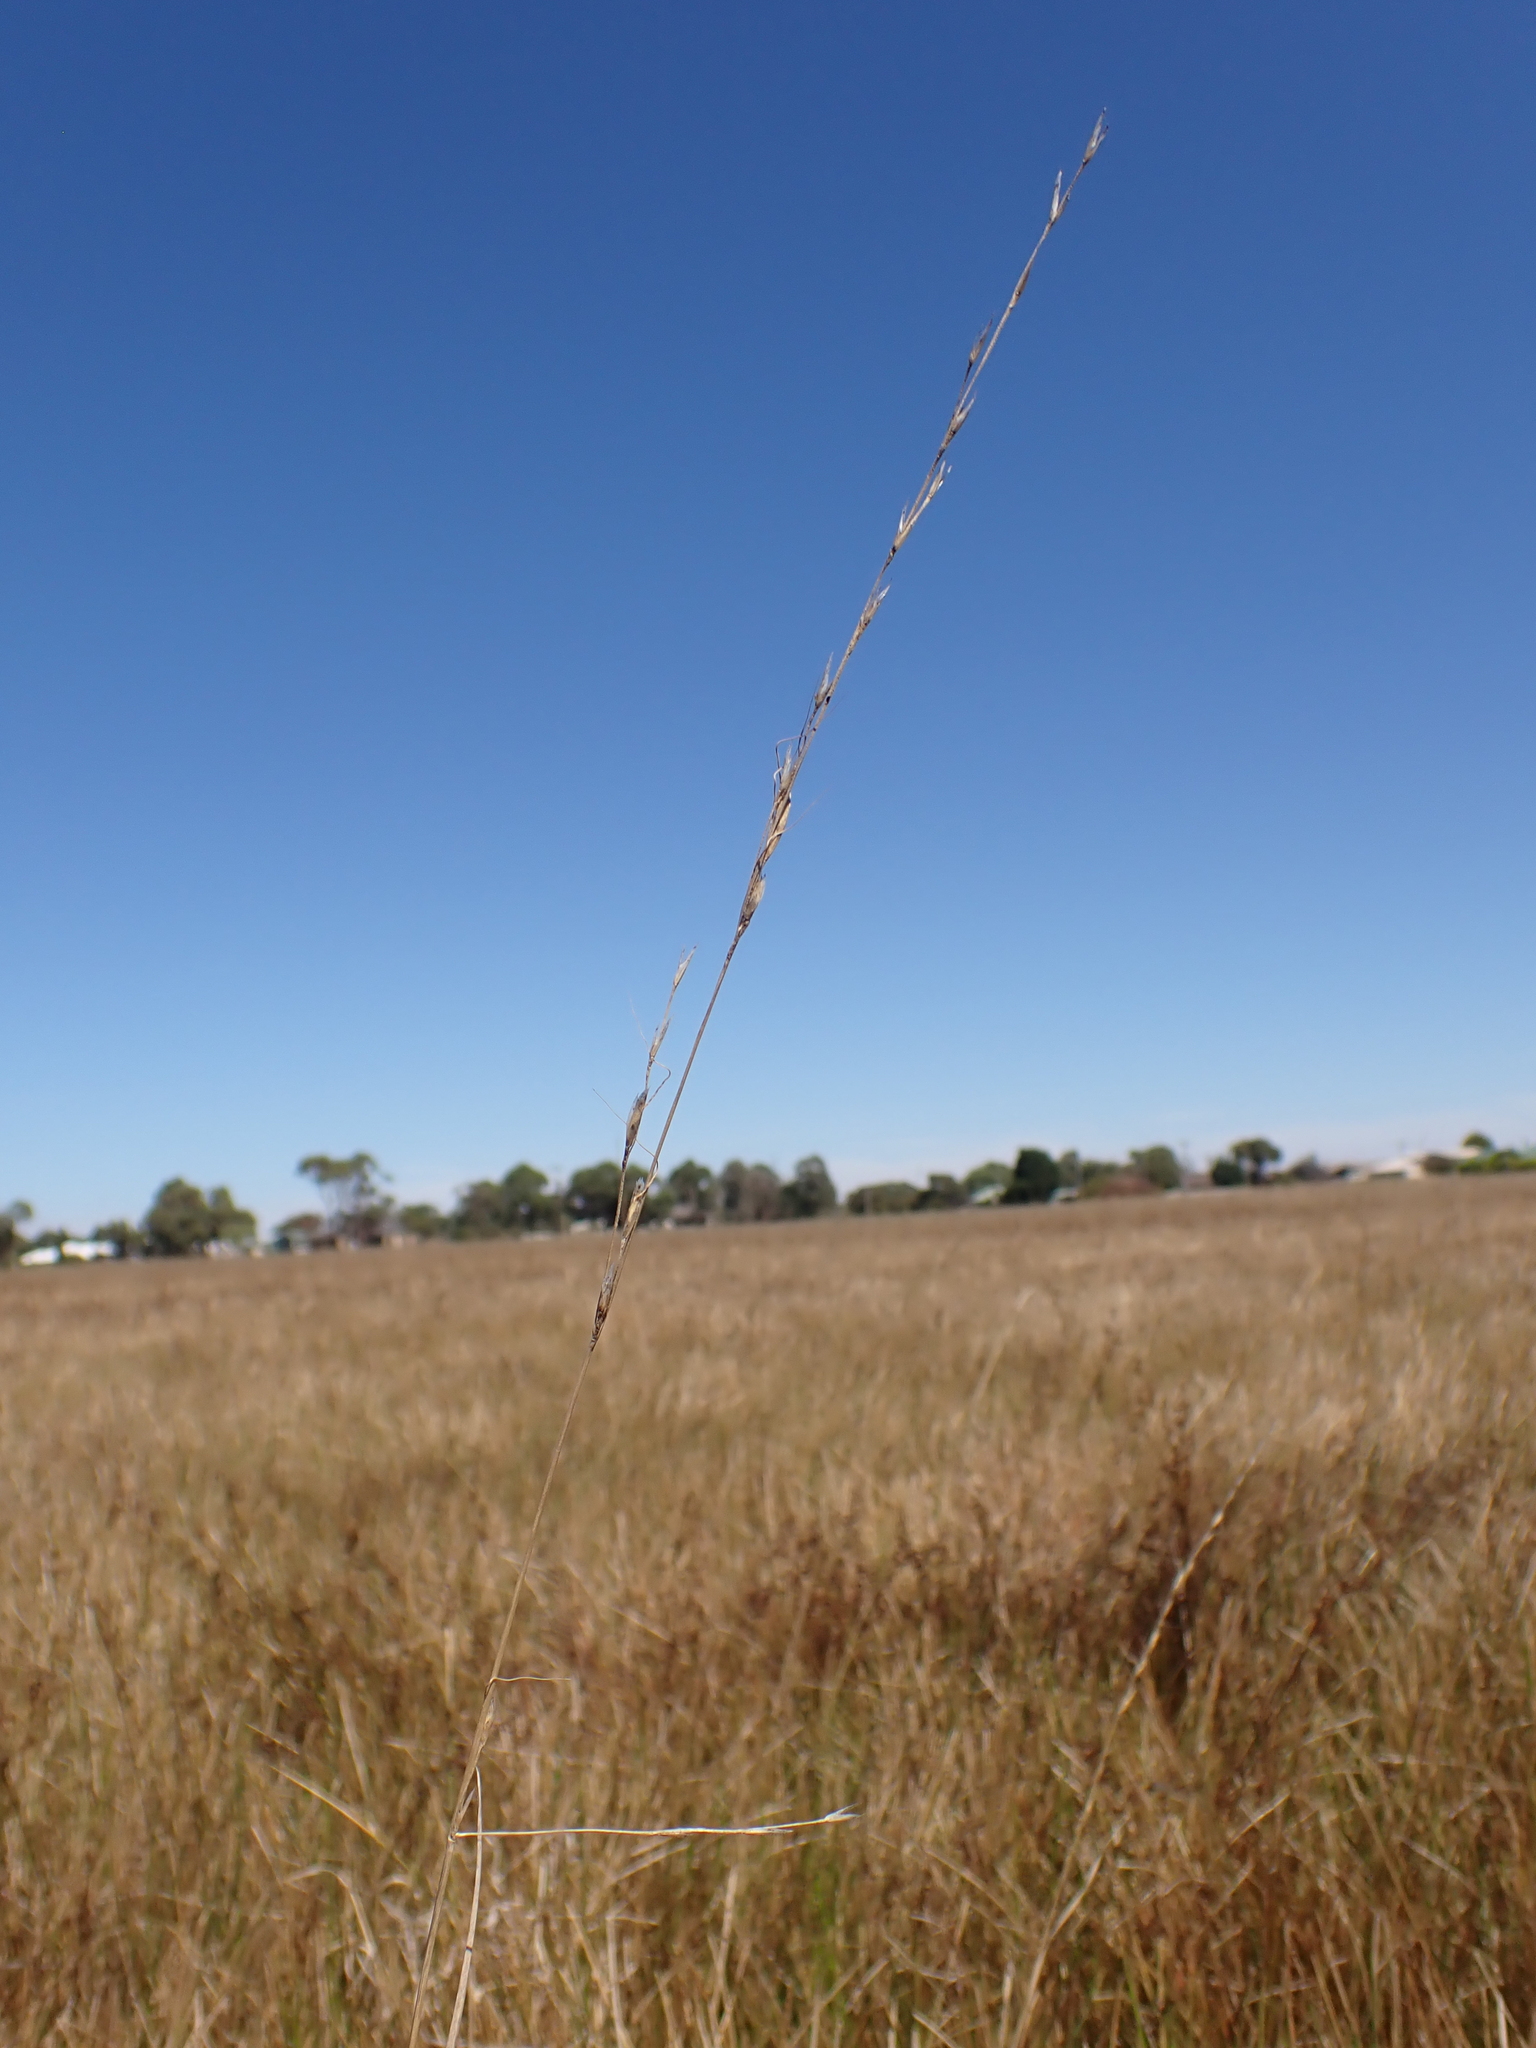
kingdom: Plantae
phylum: Tracheophyta
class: Liliopsida
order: Poales
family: Poaceae
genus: Amphibromus
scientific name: Amphibromus nervosus
